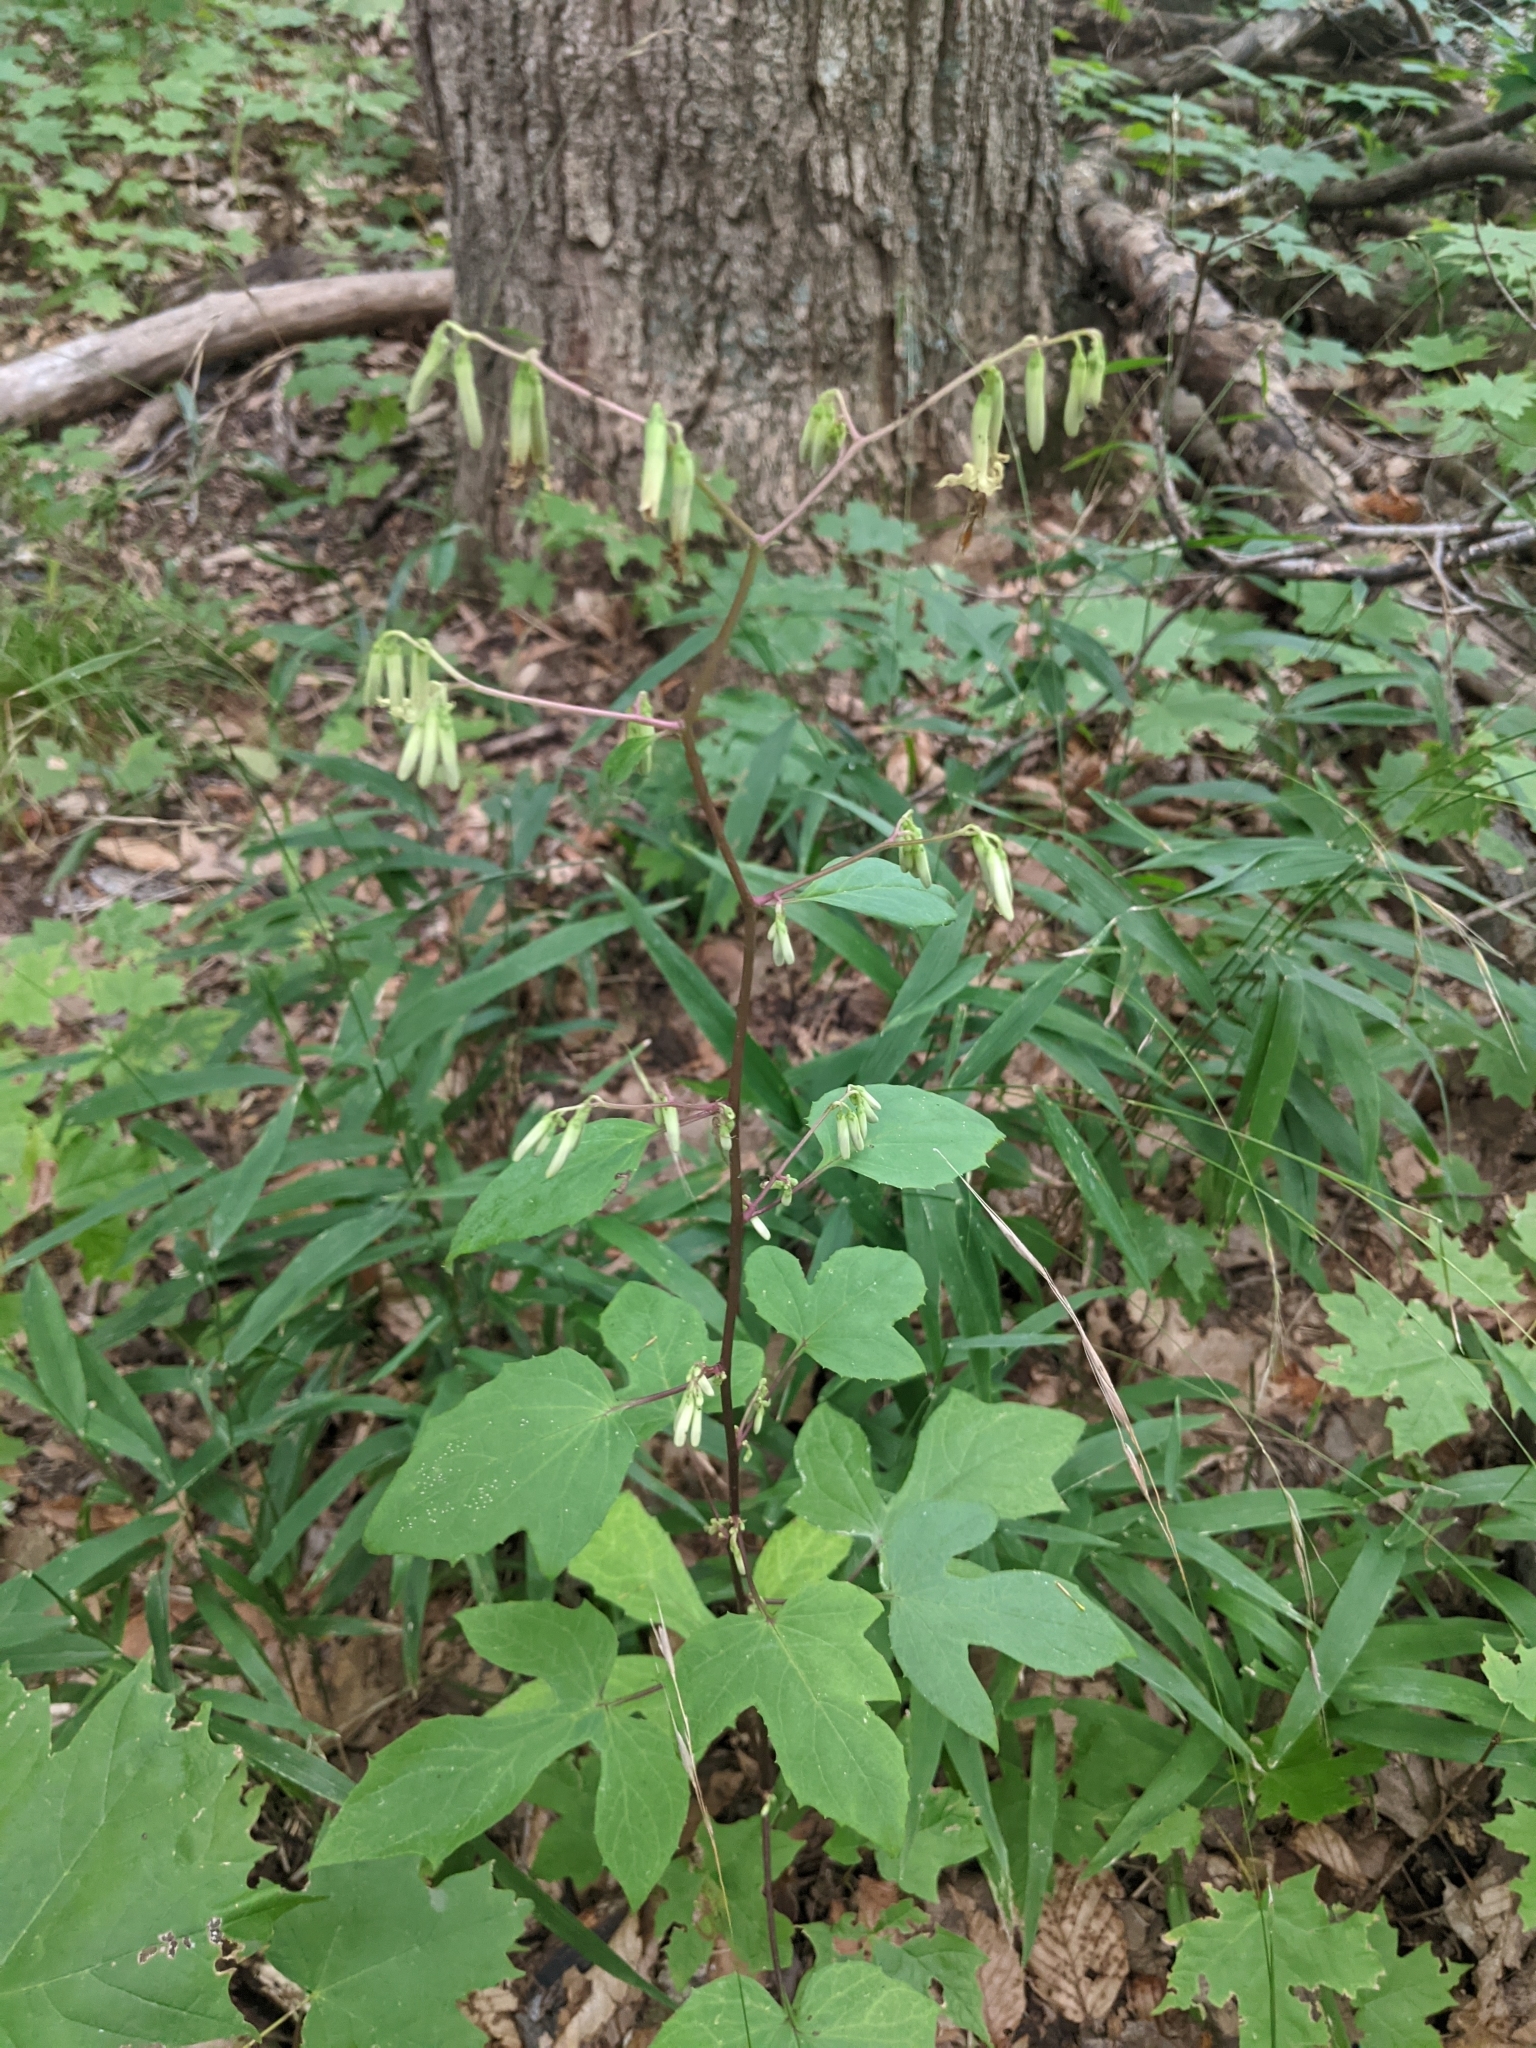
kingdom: Plantae
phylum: Tracheophyta
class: Magnoliopsida
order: Asterales
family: Asteraceae
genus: Nabalus
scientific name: Nabalus altissima
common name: Tall rattlesnakeroot
